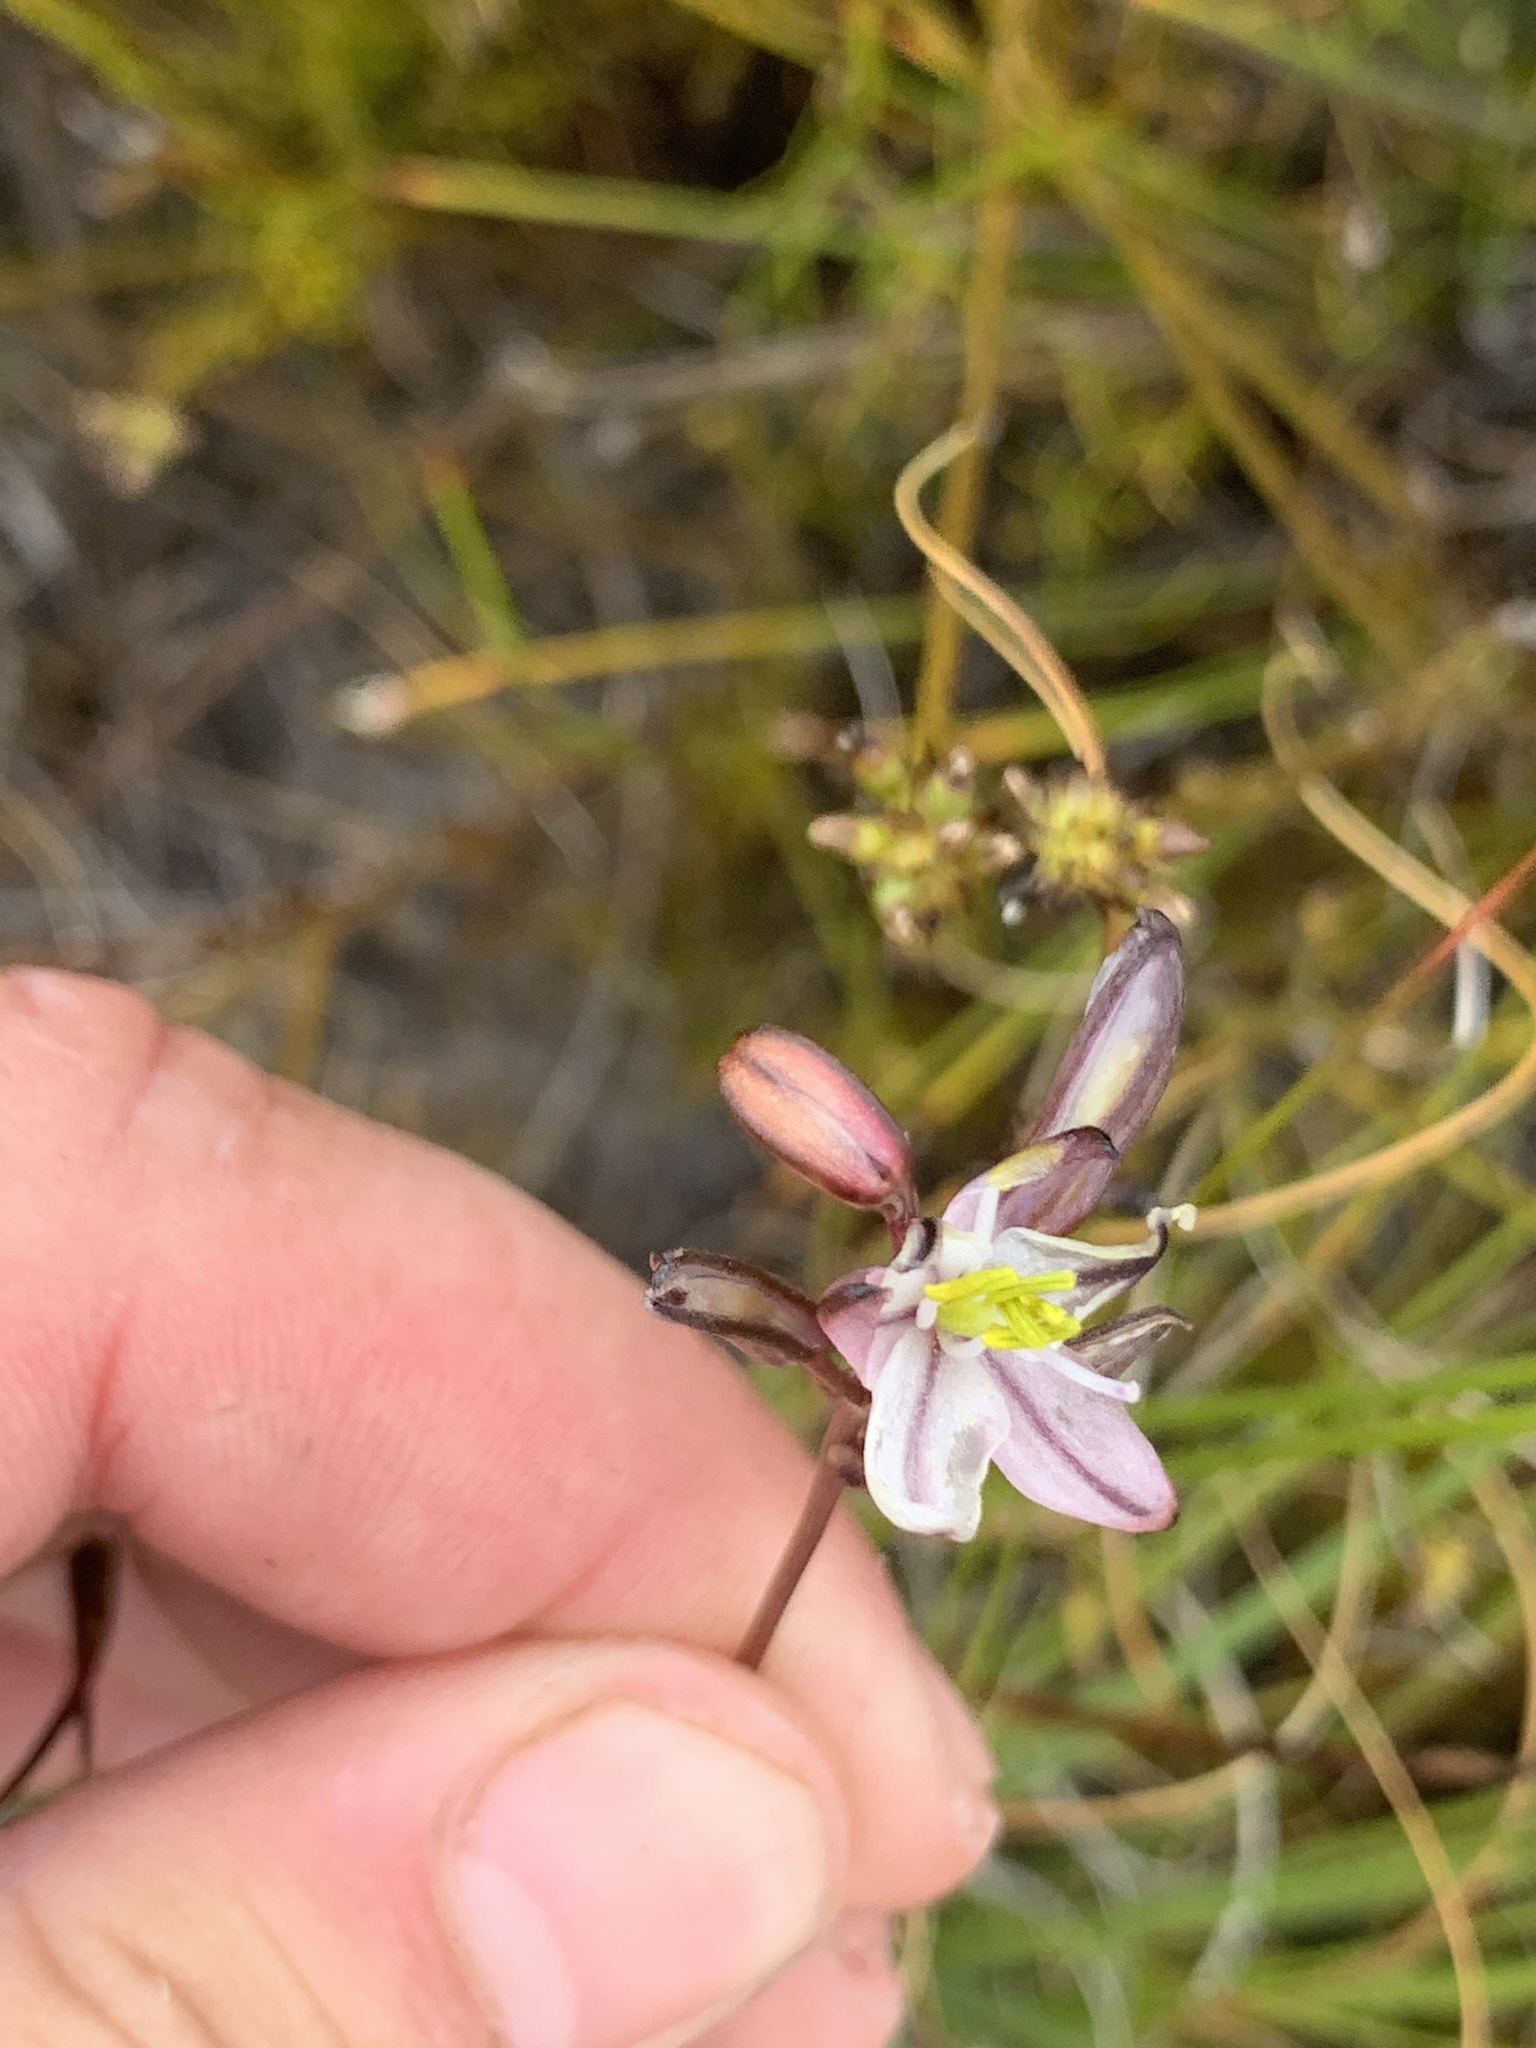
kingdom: Plantae
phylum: Tracheophyta
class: Liliopsida
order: Asparagales
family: Asparagaceae
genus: Drimia
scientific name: Drimia exuviata
